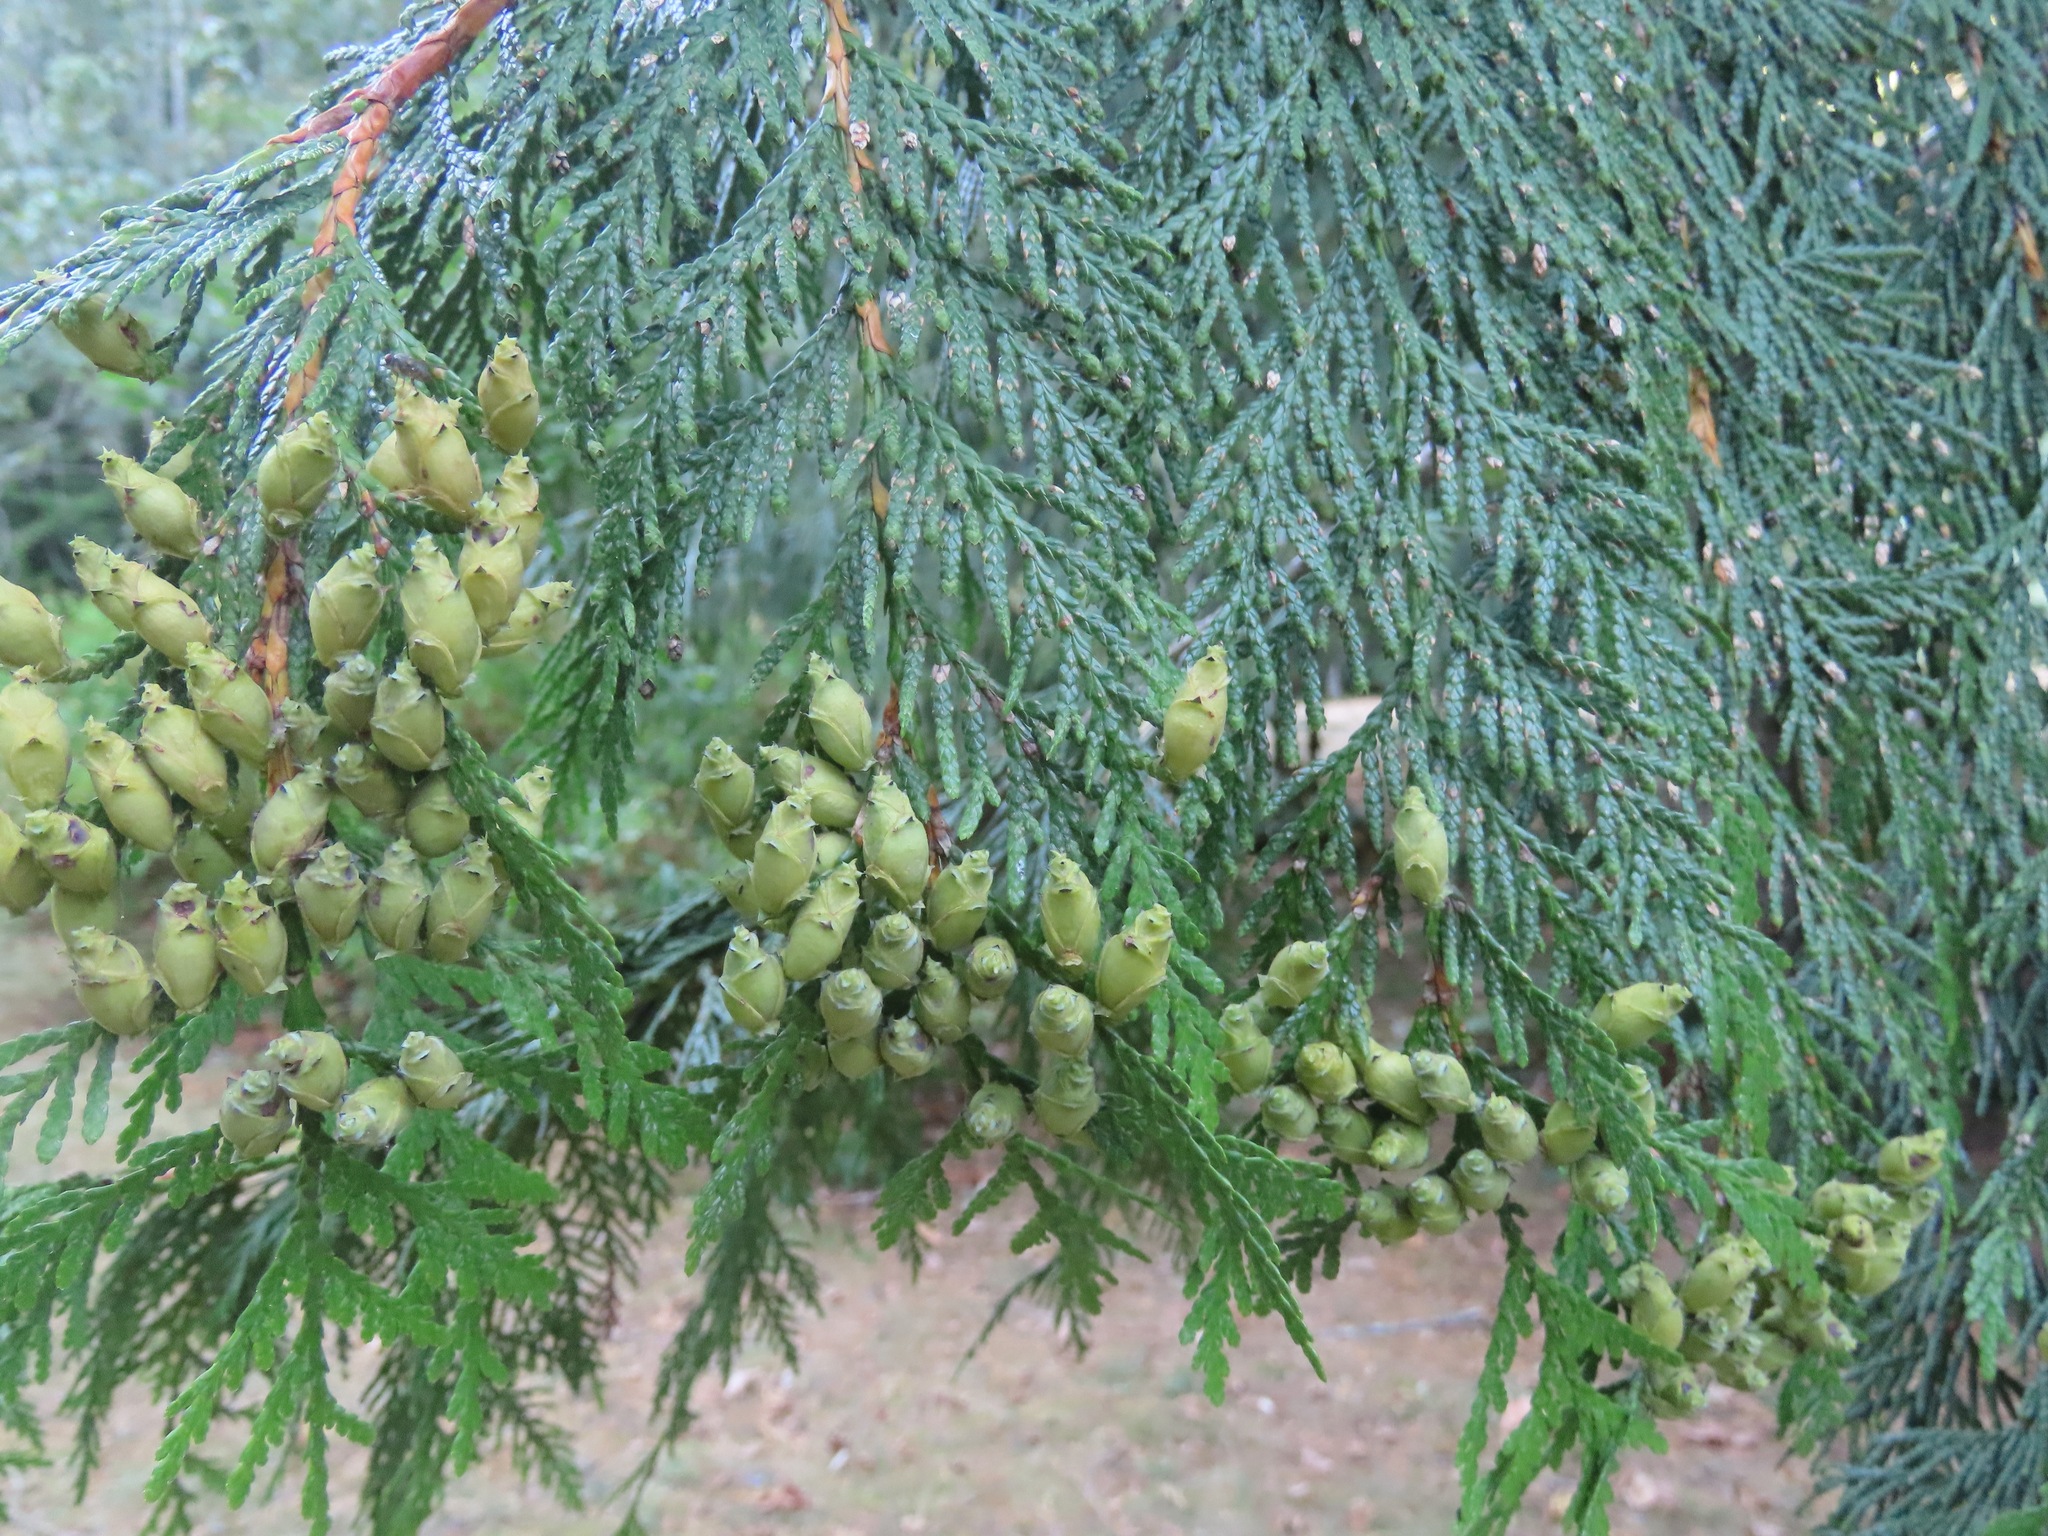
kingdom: Plantae
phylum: Tracheophyta
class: Pinopsida
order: Pinales
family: Cupressaceae
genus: Thuja
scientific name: Thuja plicata
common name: Western red-cedar
